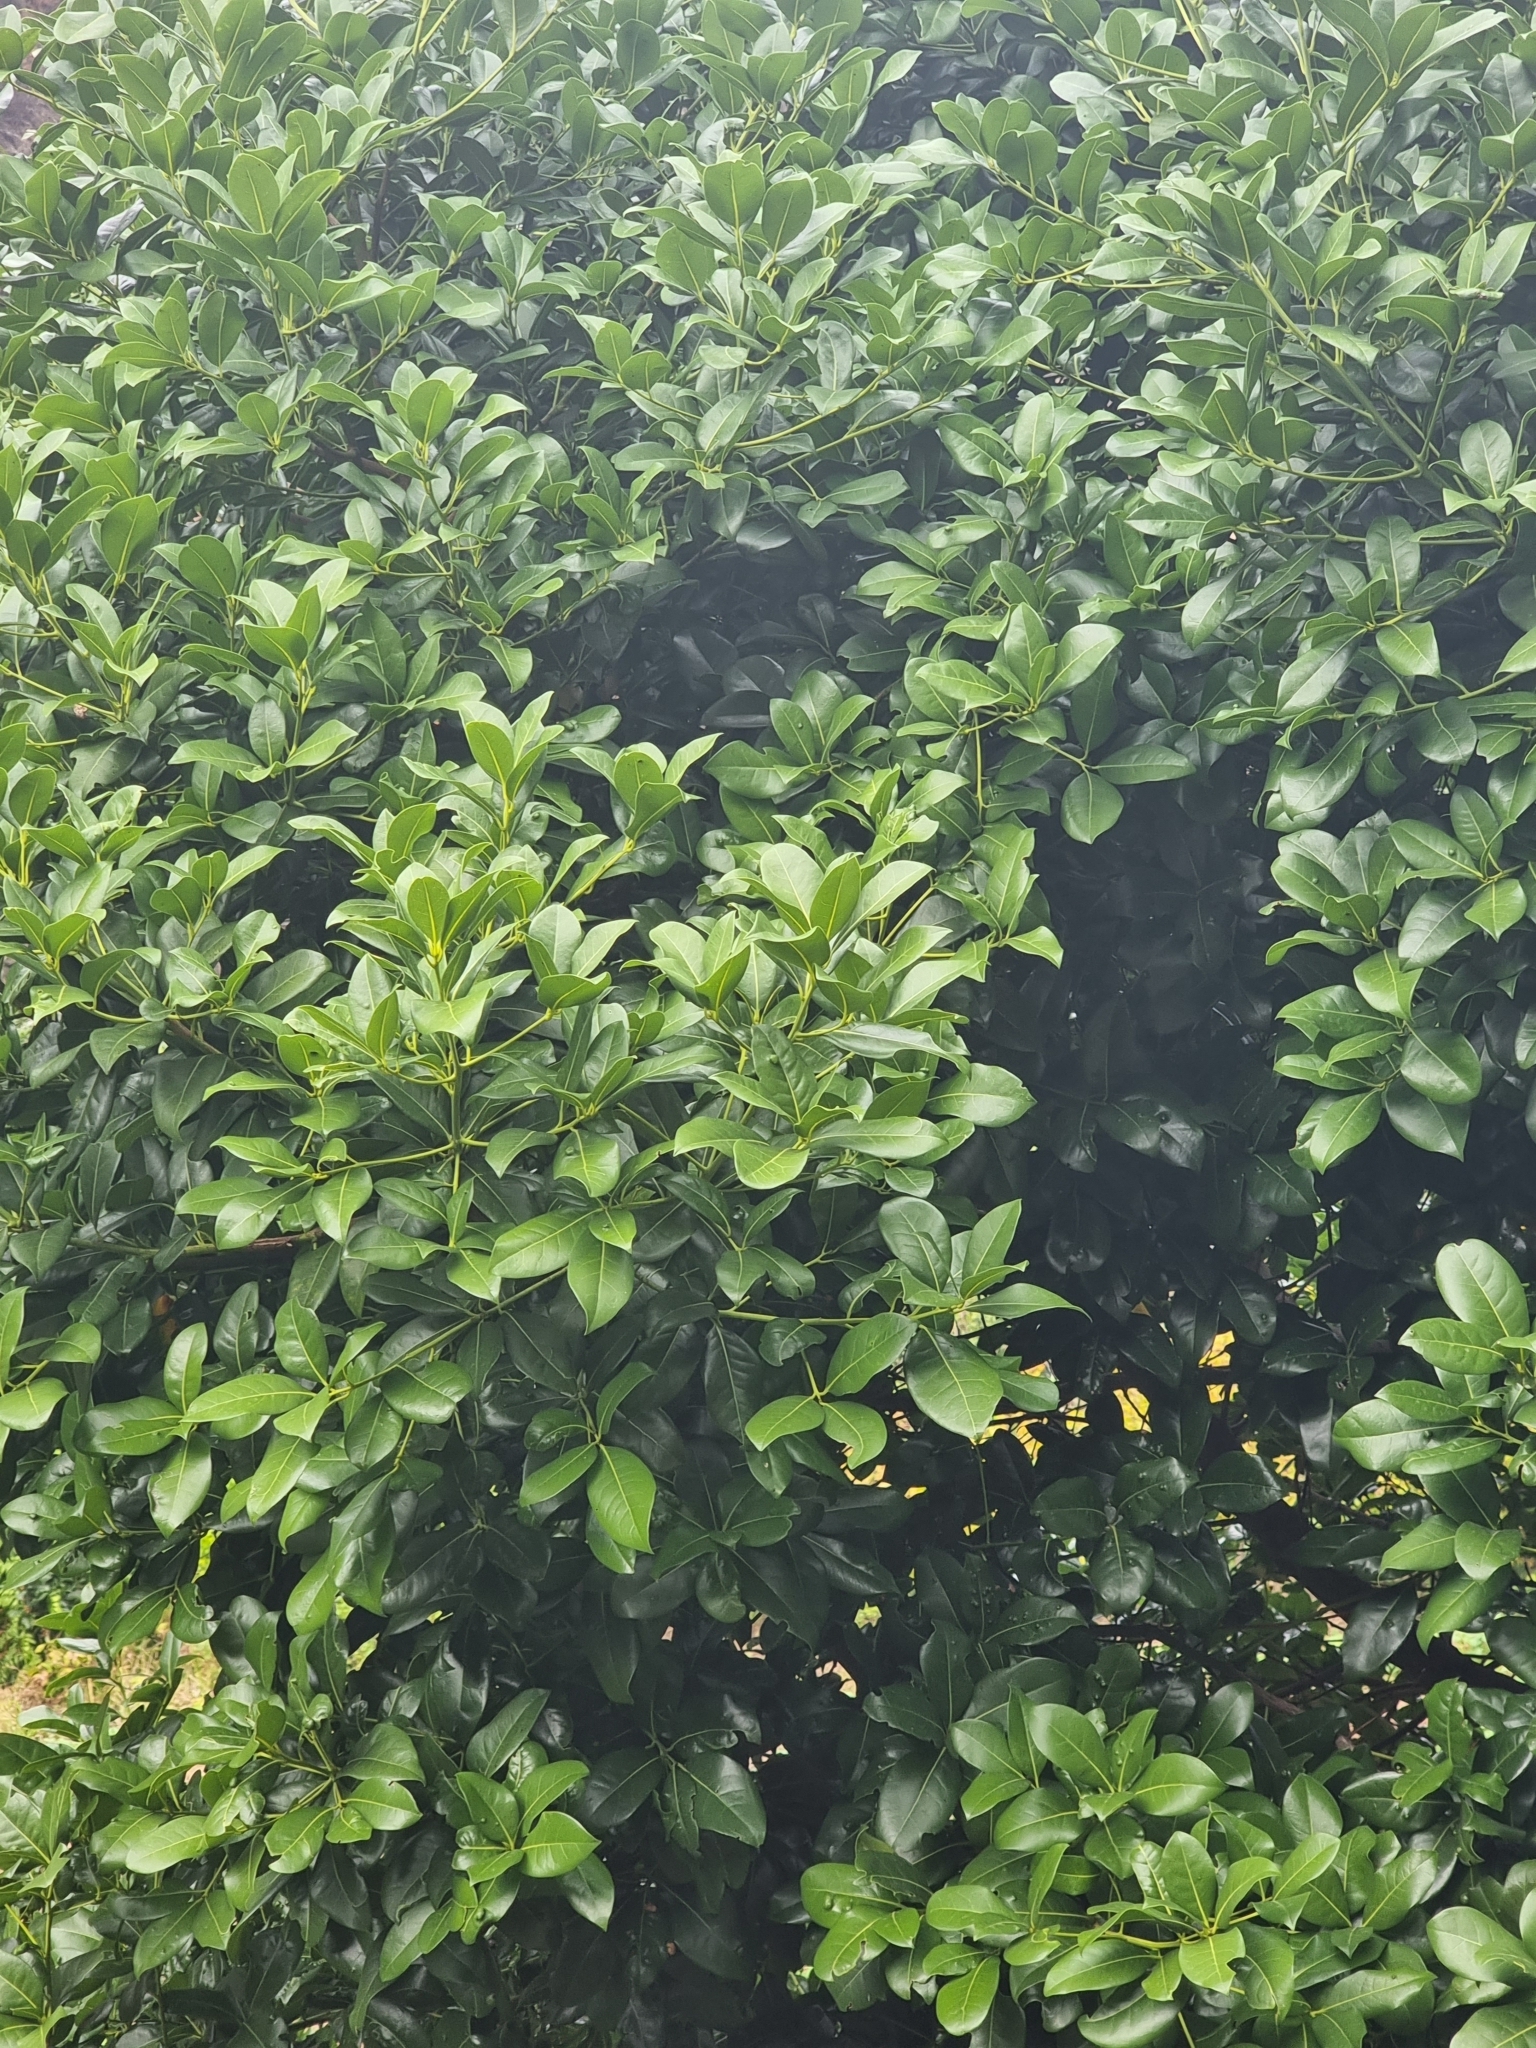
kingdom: Plantae
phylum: Tracheophyta
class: Magnoliopsida
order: Laurales
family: Lauraceae
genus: Apollonias
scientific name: Apollonias barbujana
